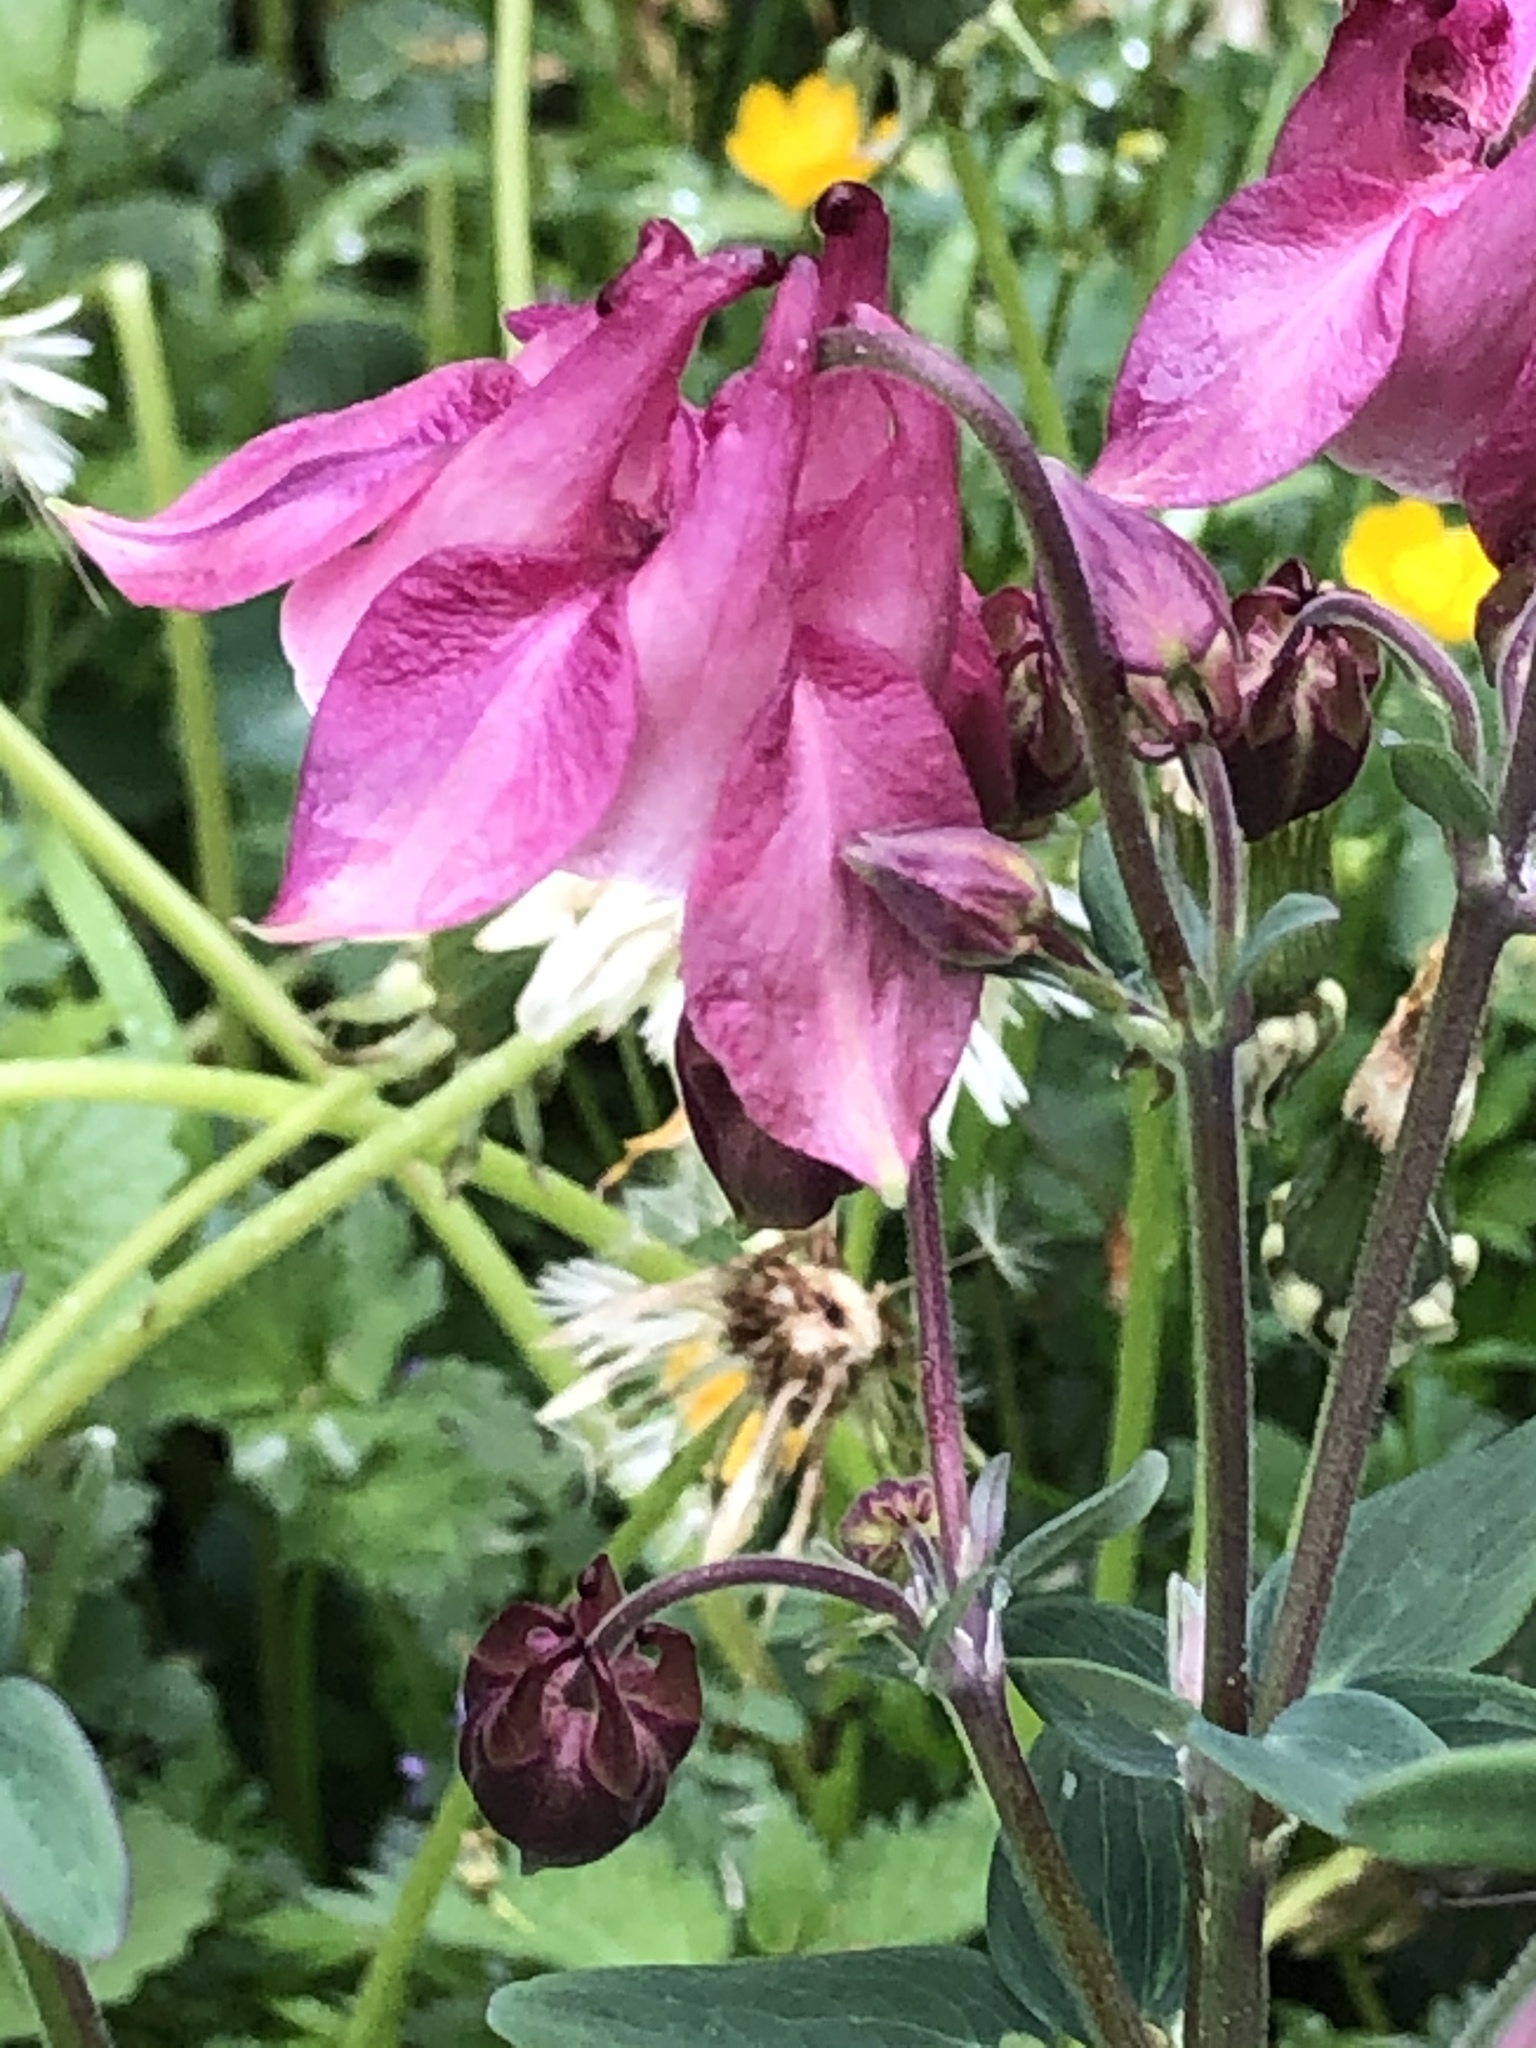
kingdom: Plantae
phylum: Tracheophyta
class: Magnoliopsida
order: Ranunculales
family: Ranunculaceae
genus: Aquilegia
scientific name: Aquilegia vulgaris
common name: Columbine
